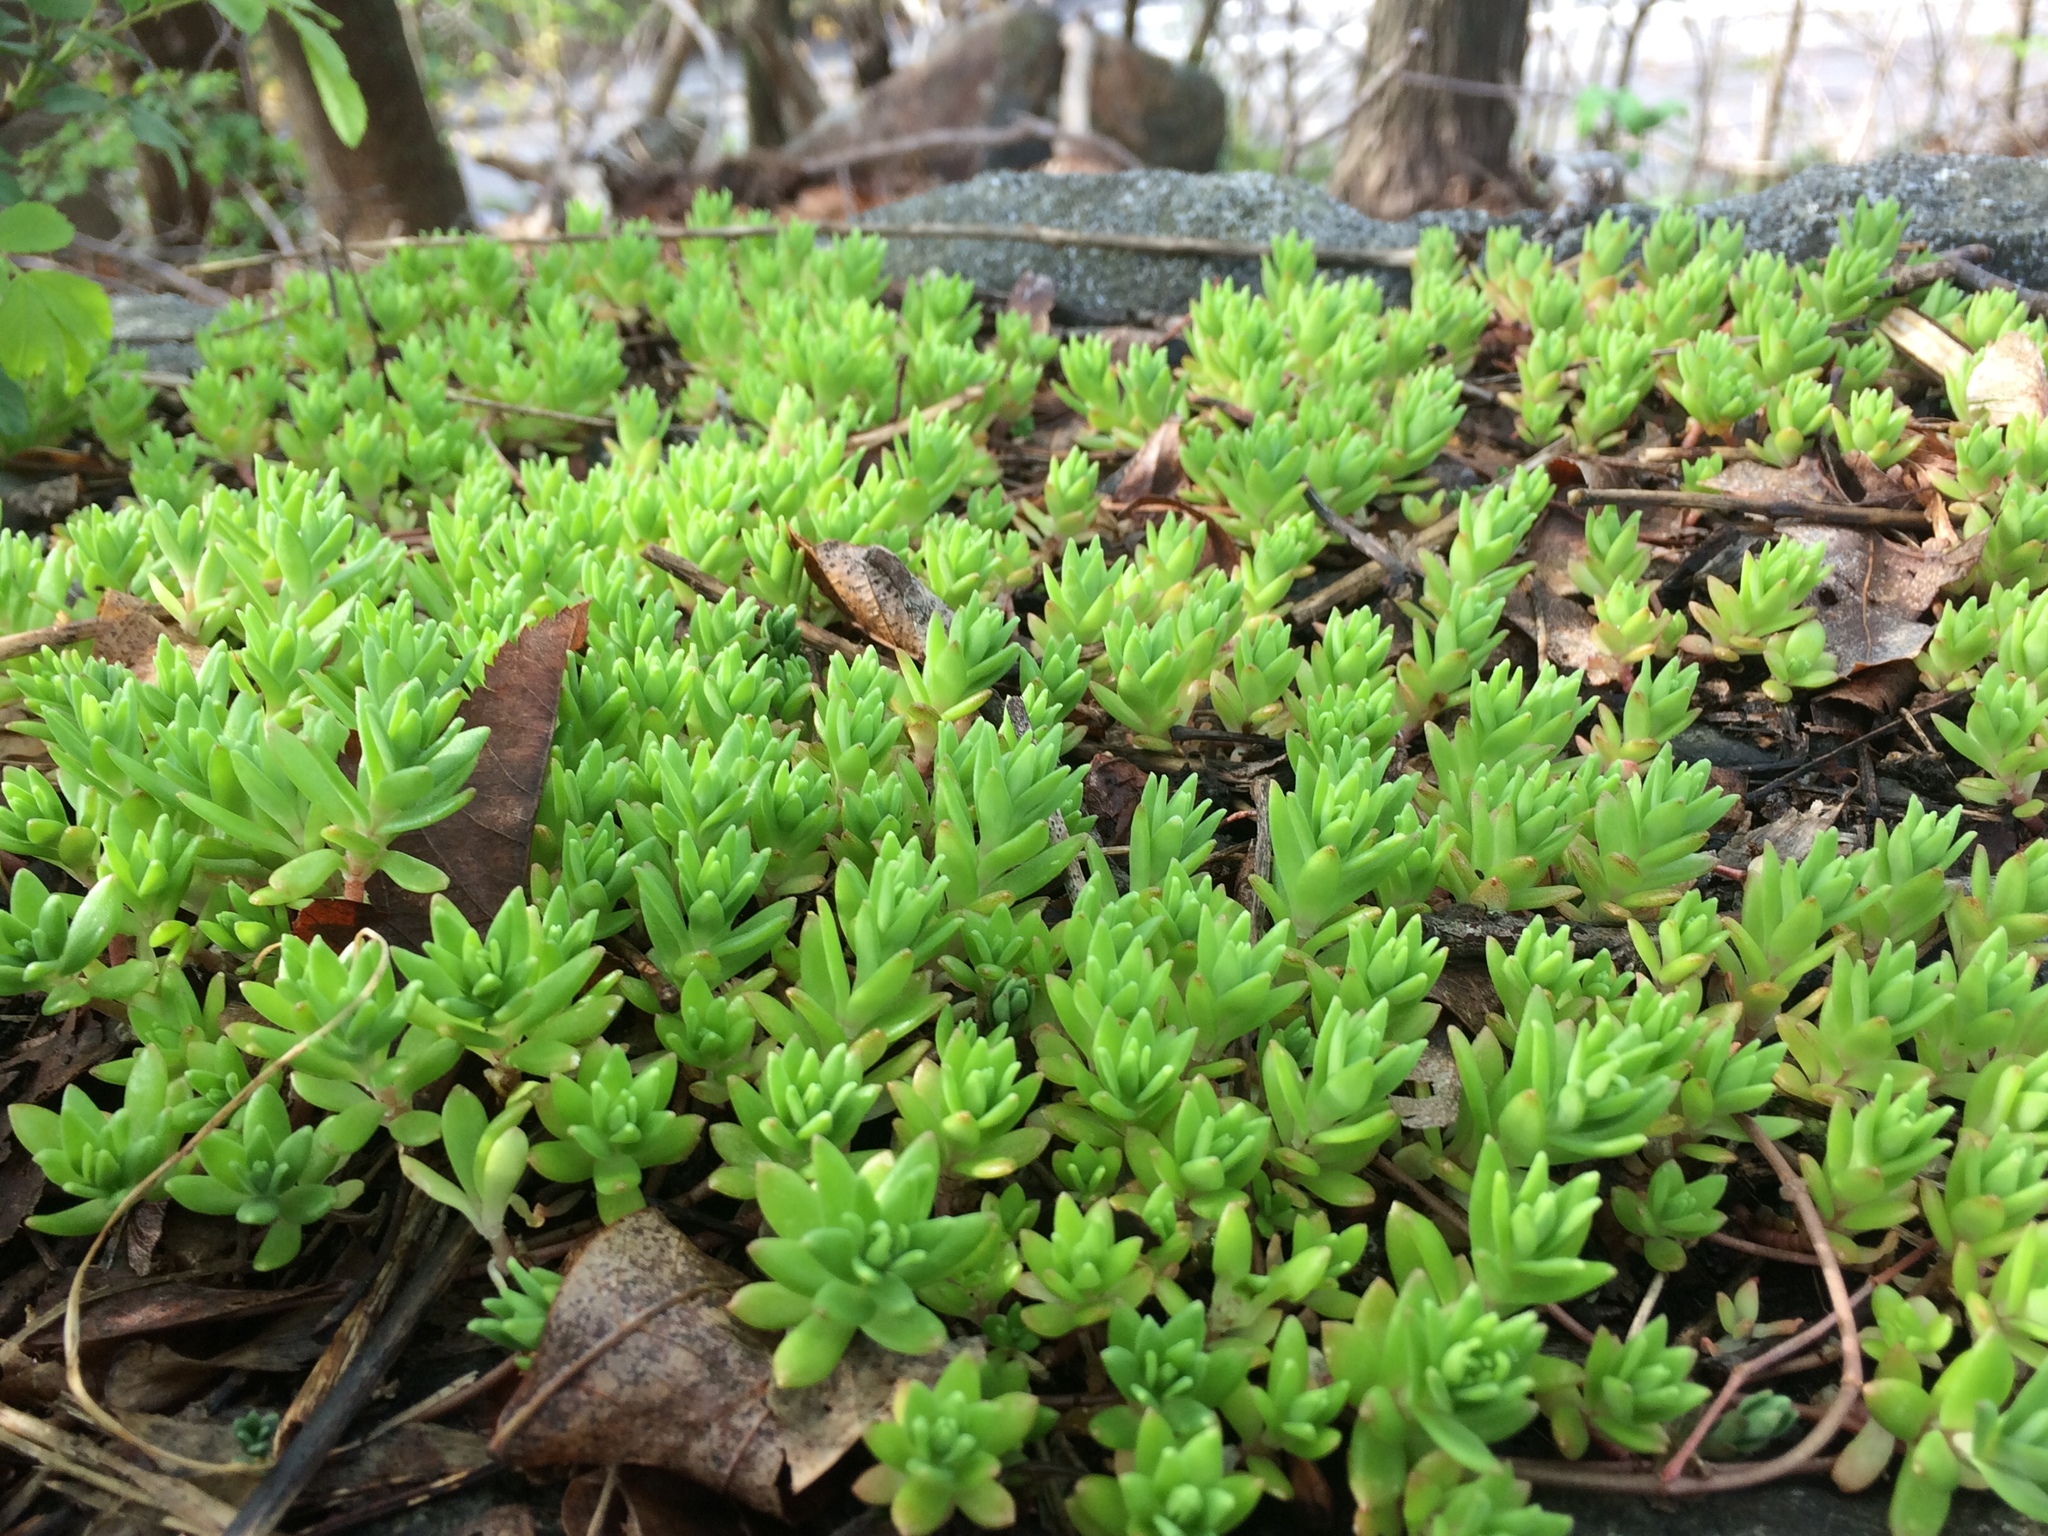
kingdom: Plantae
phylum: Tracheophyta
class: Magnoliopsida
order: Saxifragales
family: Crassulaceae
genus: Sedum
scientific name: Sedum sarmentosum
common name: Stringy stonecrop
